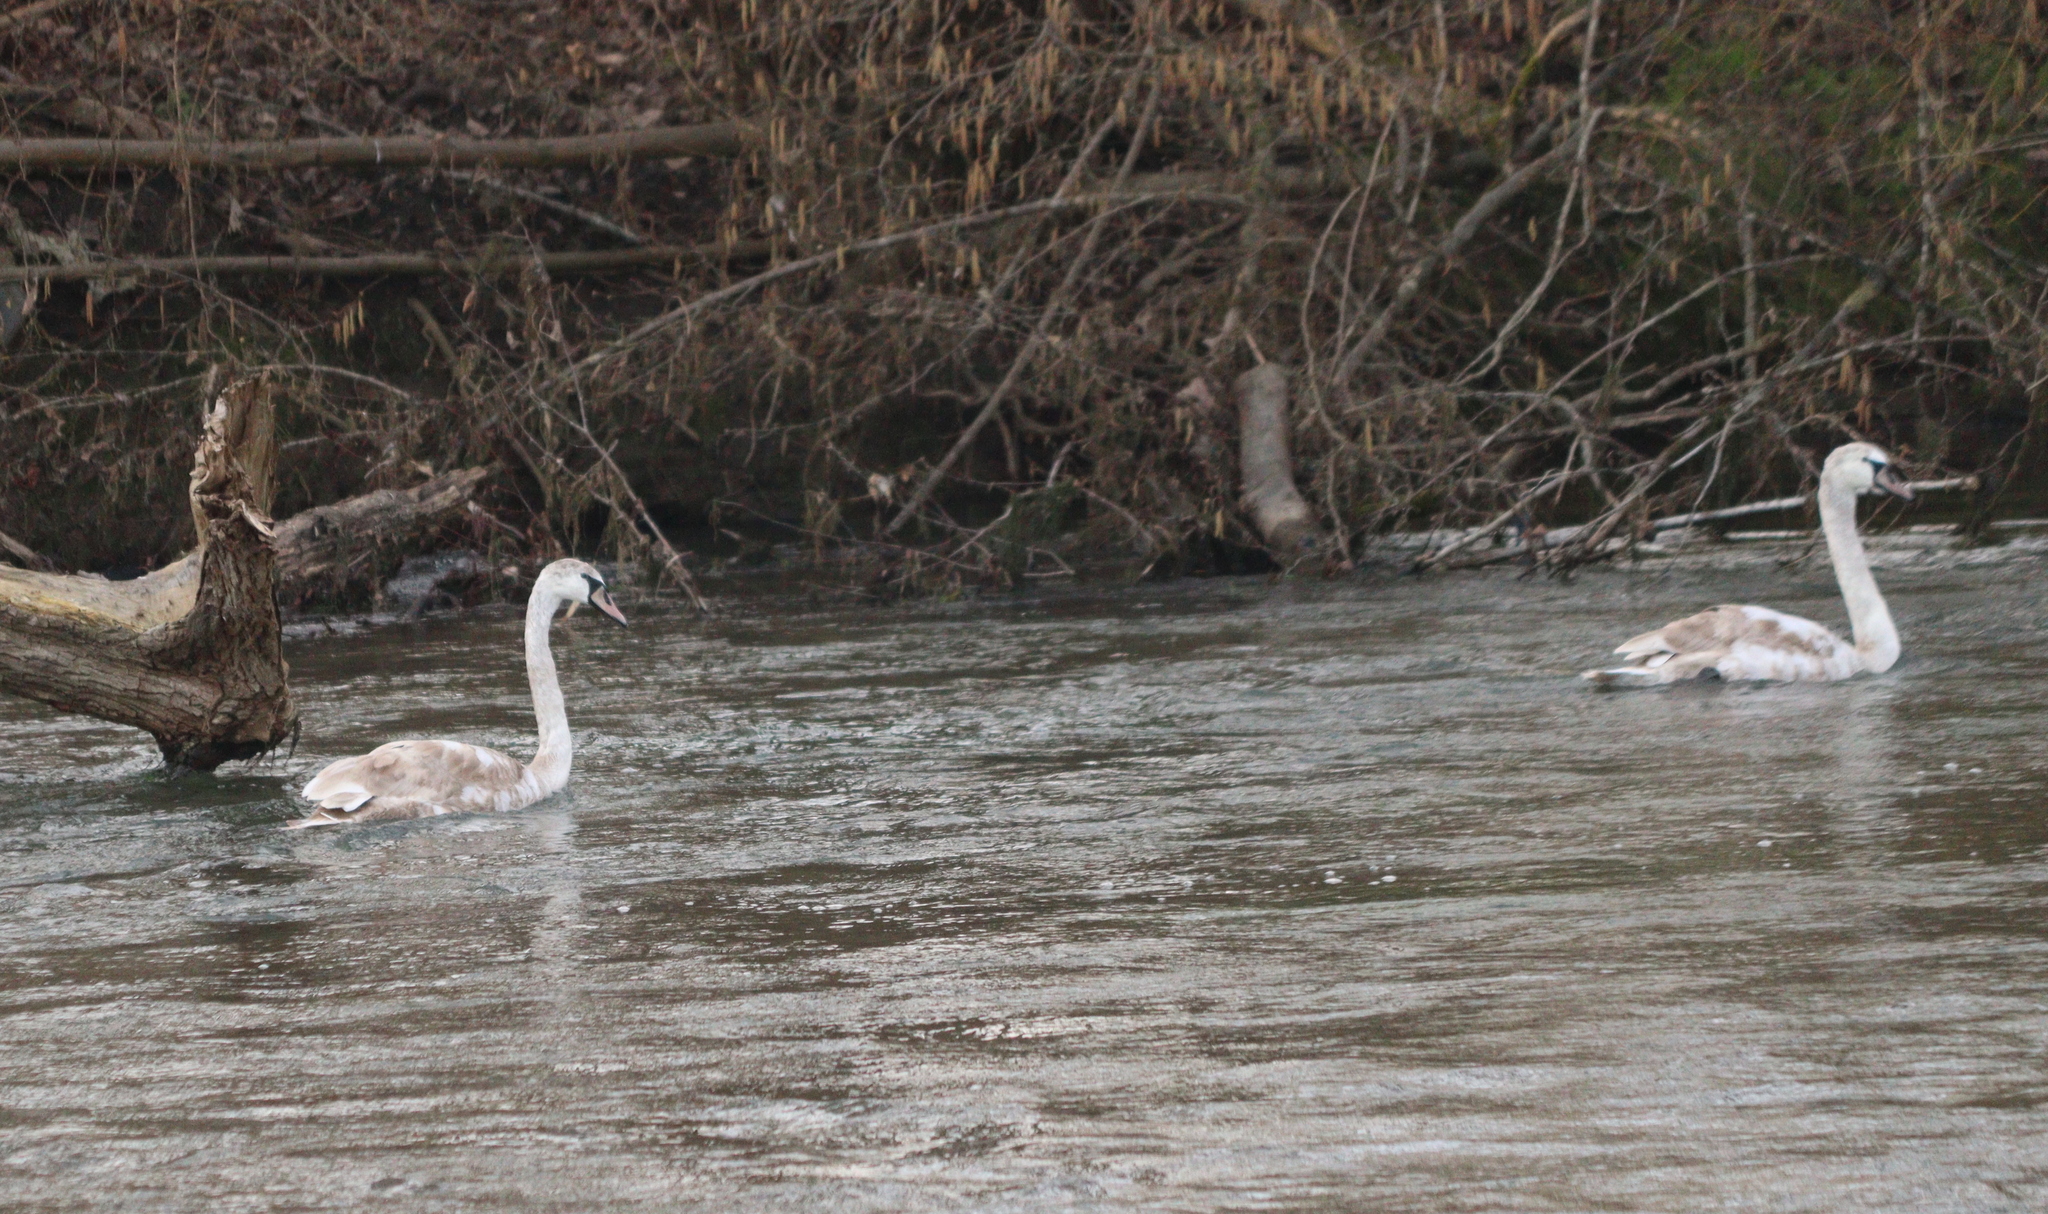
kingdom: Animalia
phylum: Chordata
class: Aves
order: Anseriformes
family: Anatidae
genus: Cygnus
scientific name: Cygnus olor
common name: Mute swan
